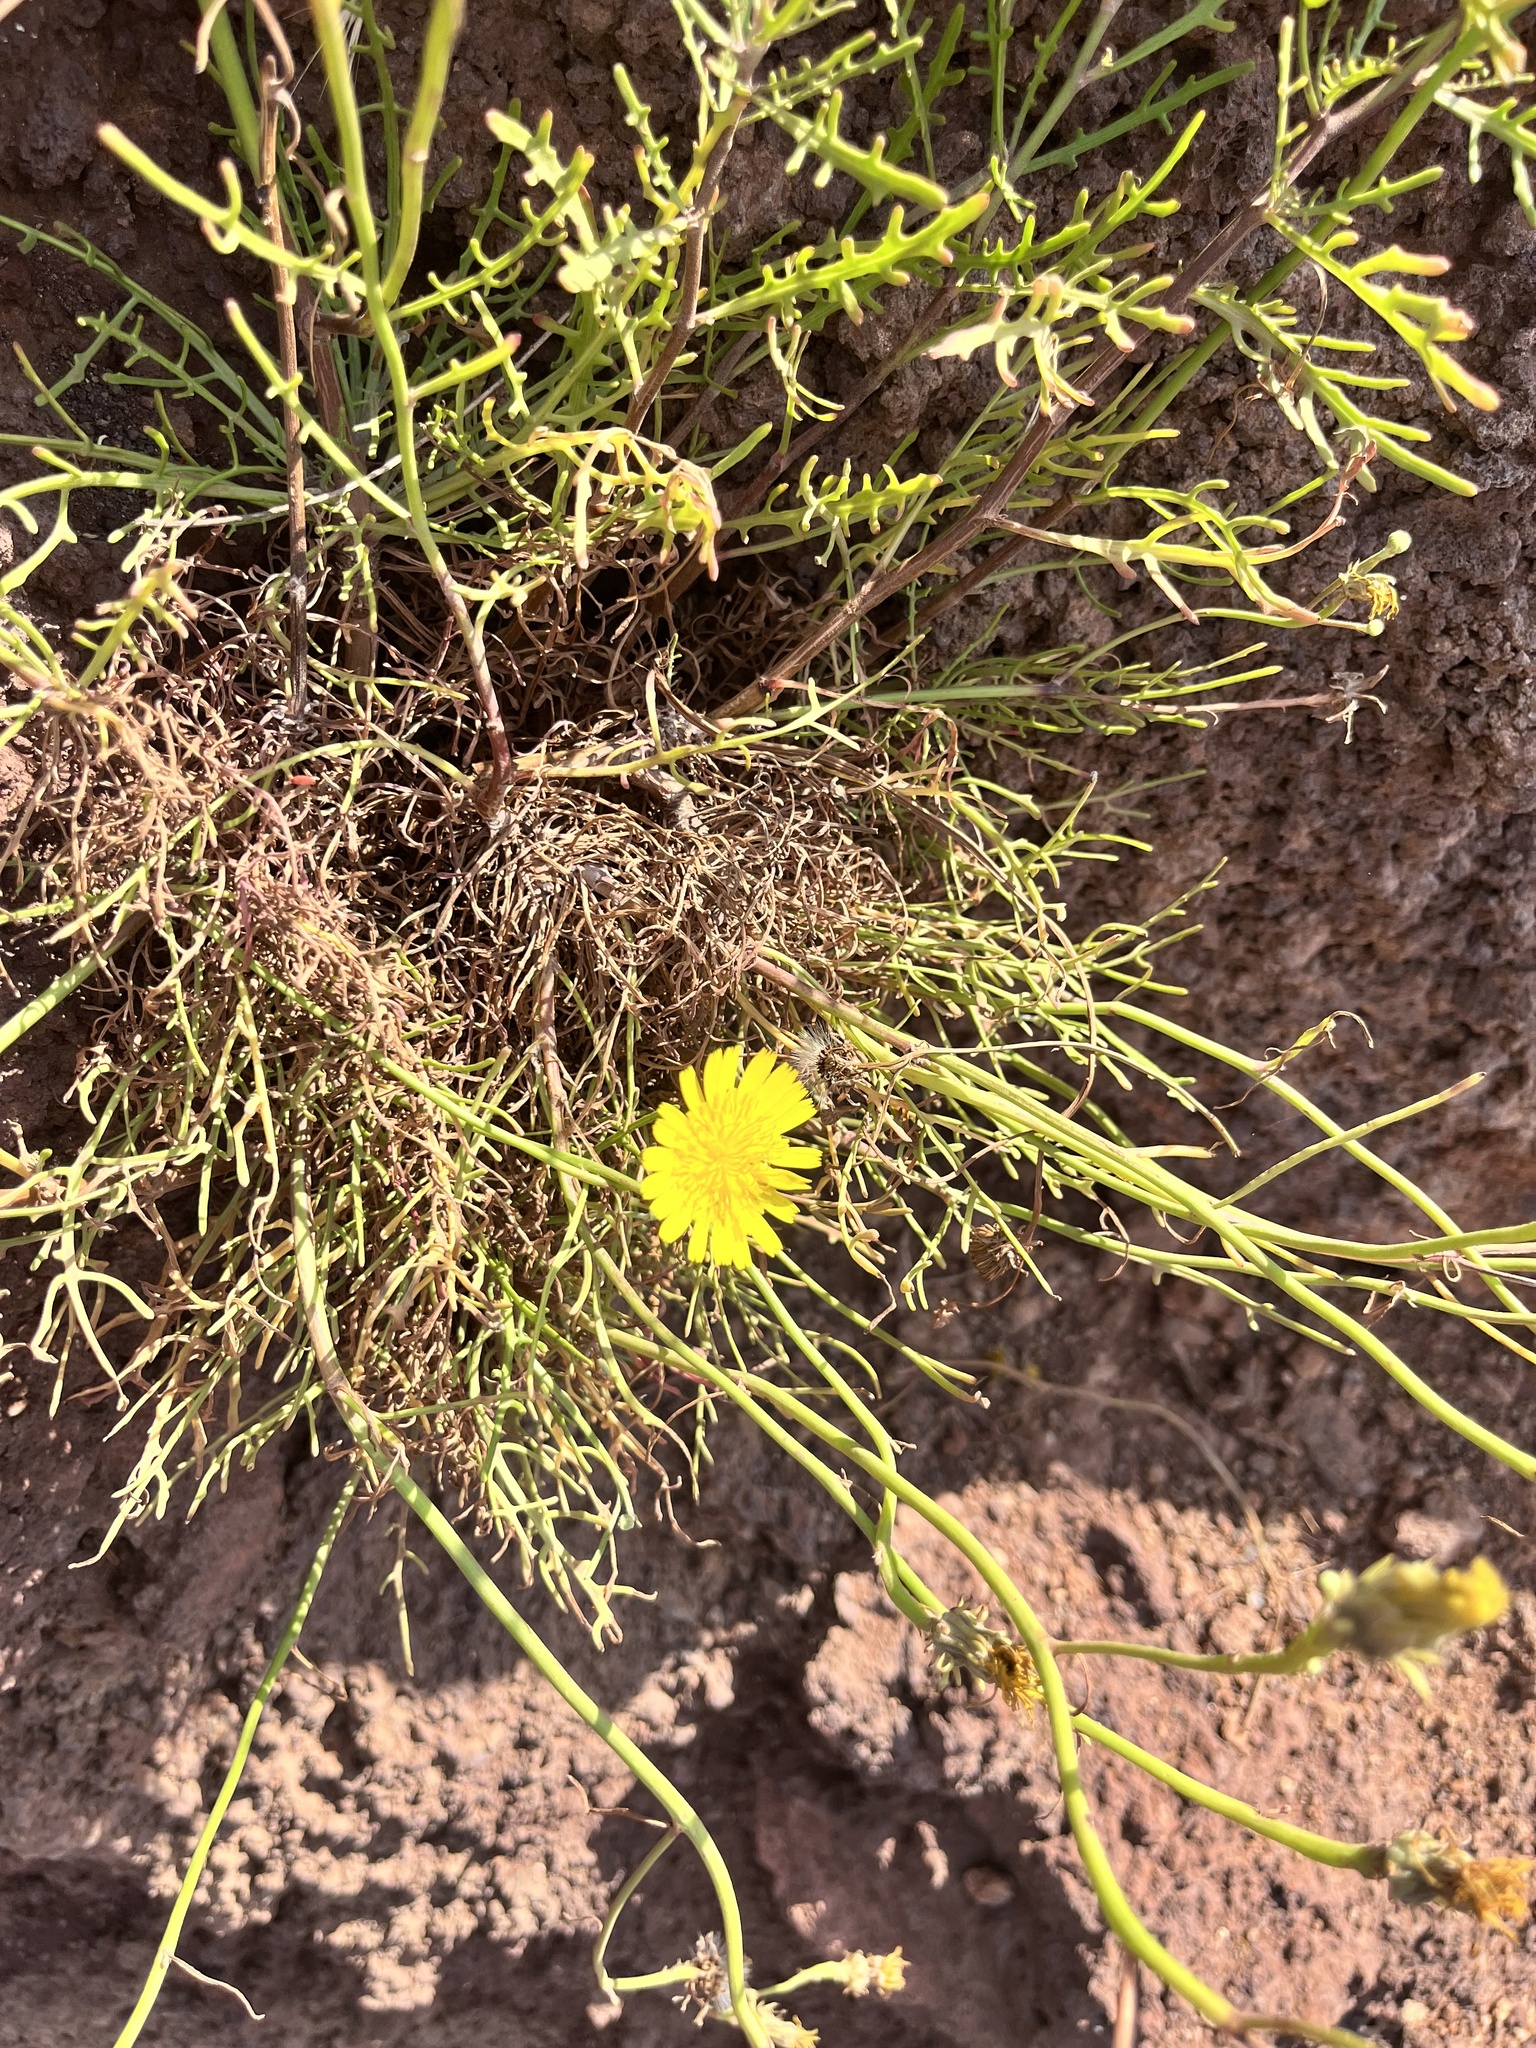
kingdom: Plantae
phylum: Tracheophyta
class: Magnoliopsida
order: Asterales
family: Asteraceae
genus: Tolpis
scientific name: Tolpis succulenta
